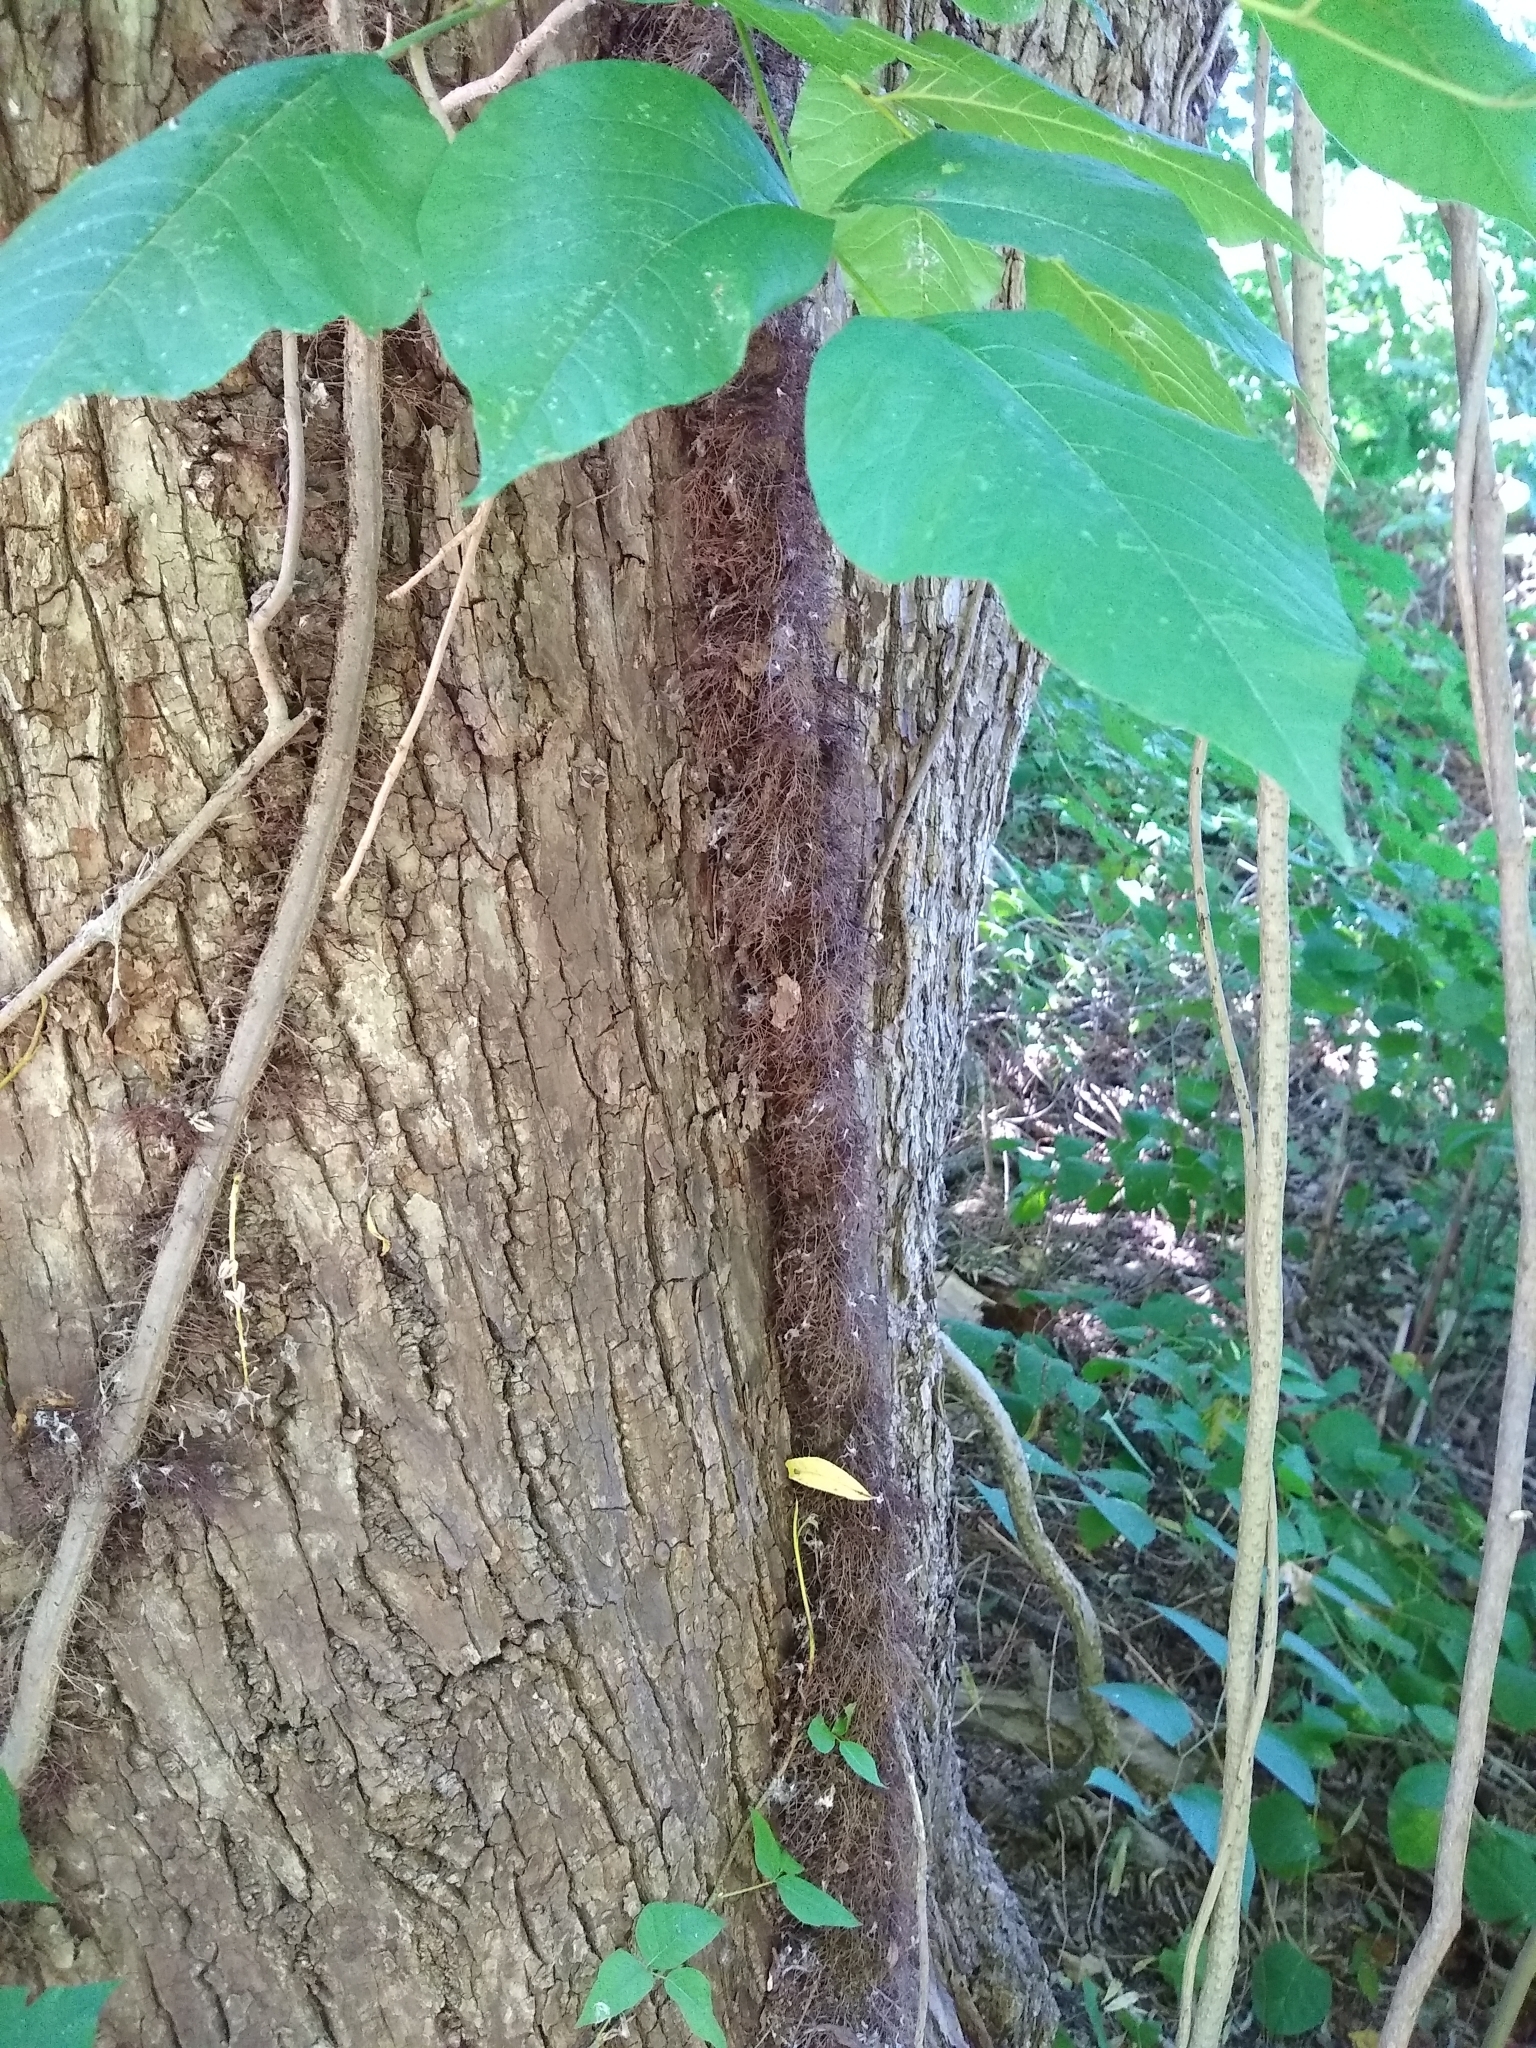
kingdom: Plantae
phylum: Tracheophyta
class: Magnoliopsida
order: Sapindales
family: Anacardiaceae
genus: Toxicodendron
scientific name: Toxicodendron radicans
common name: Poison ivy
